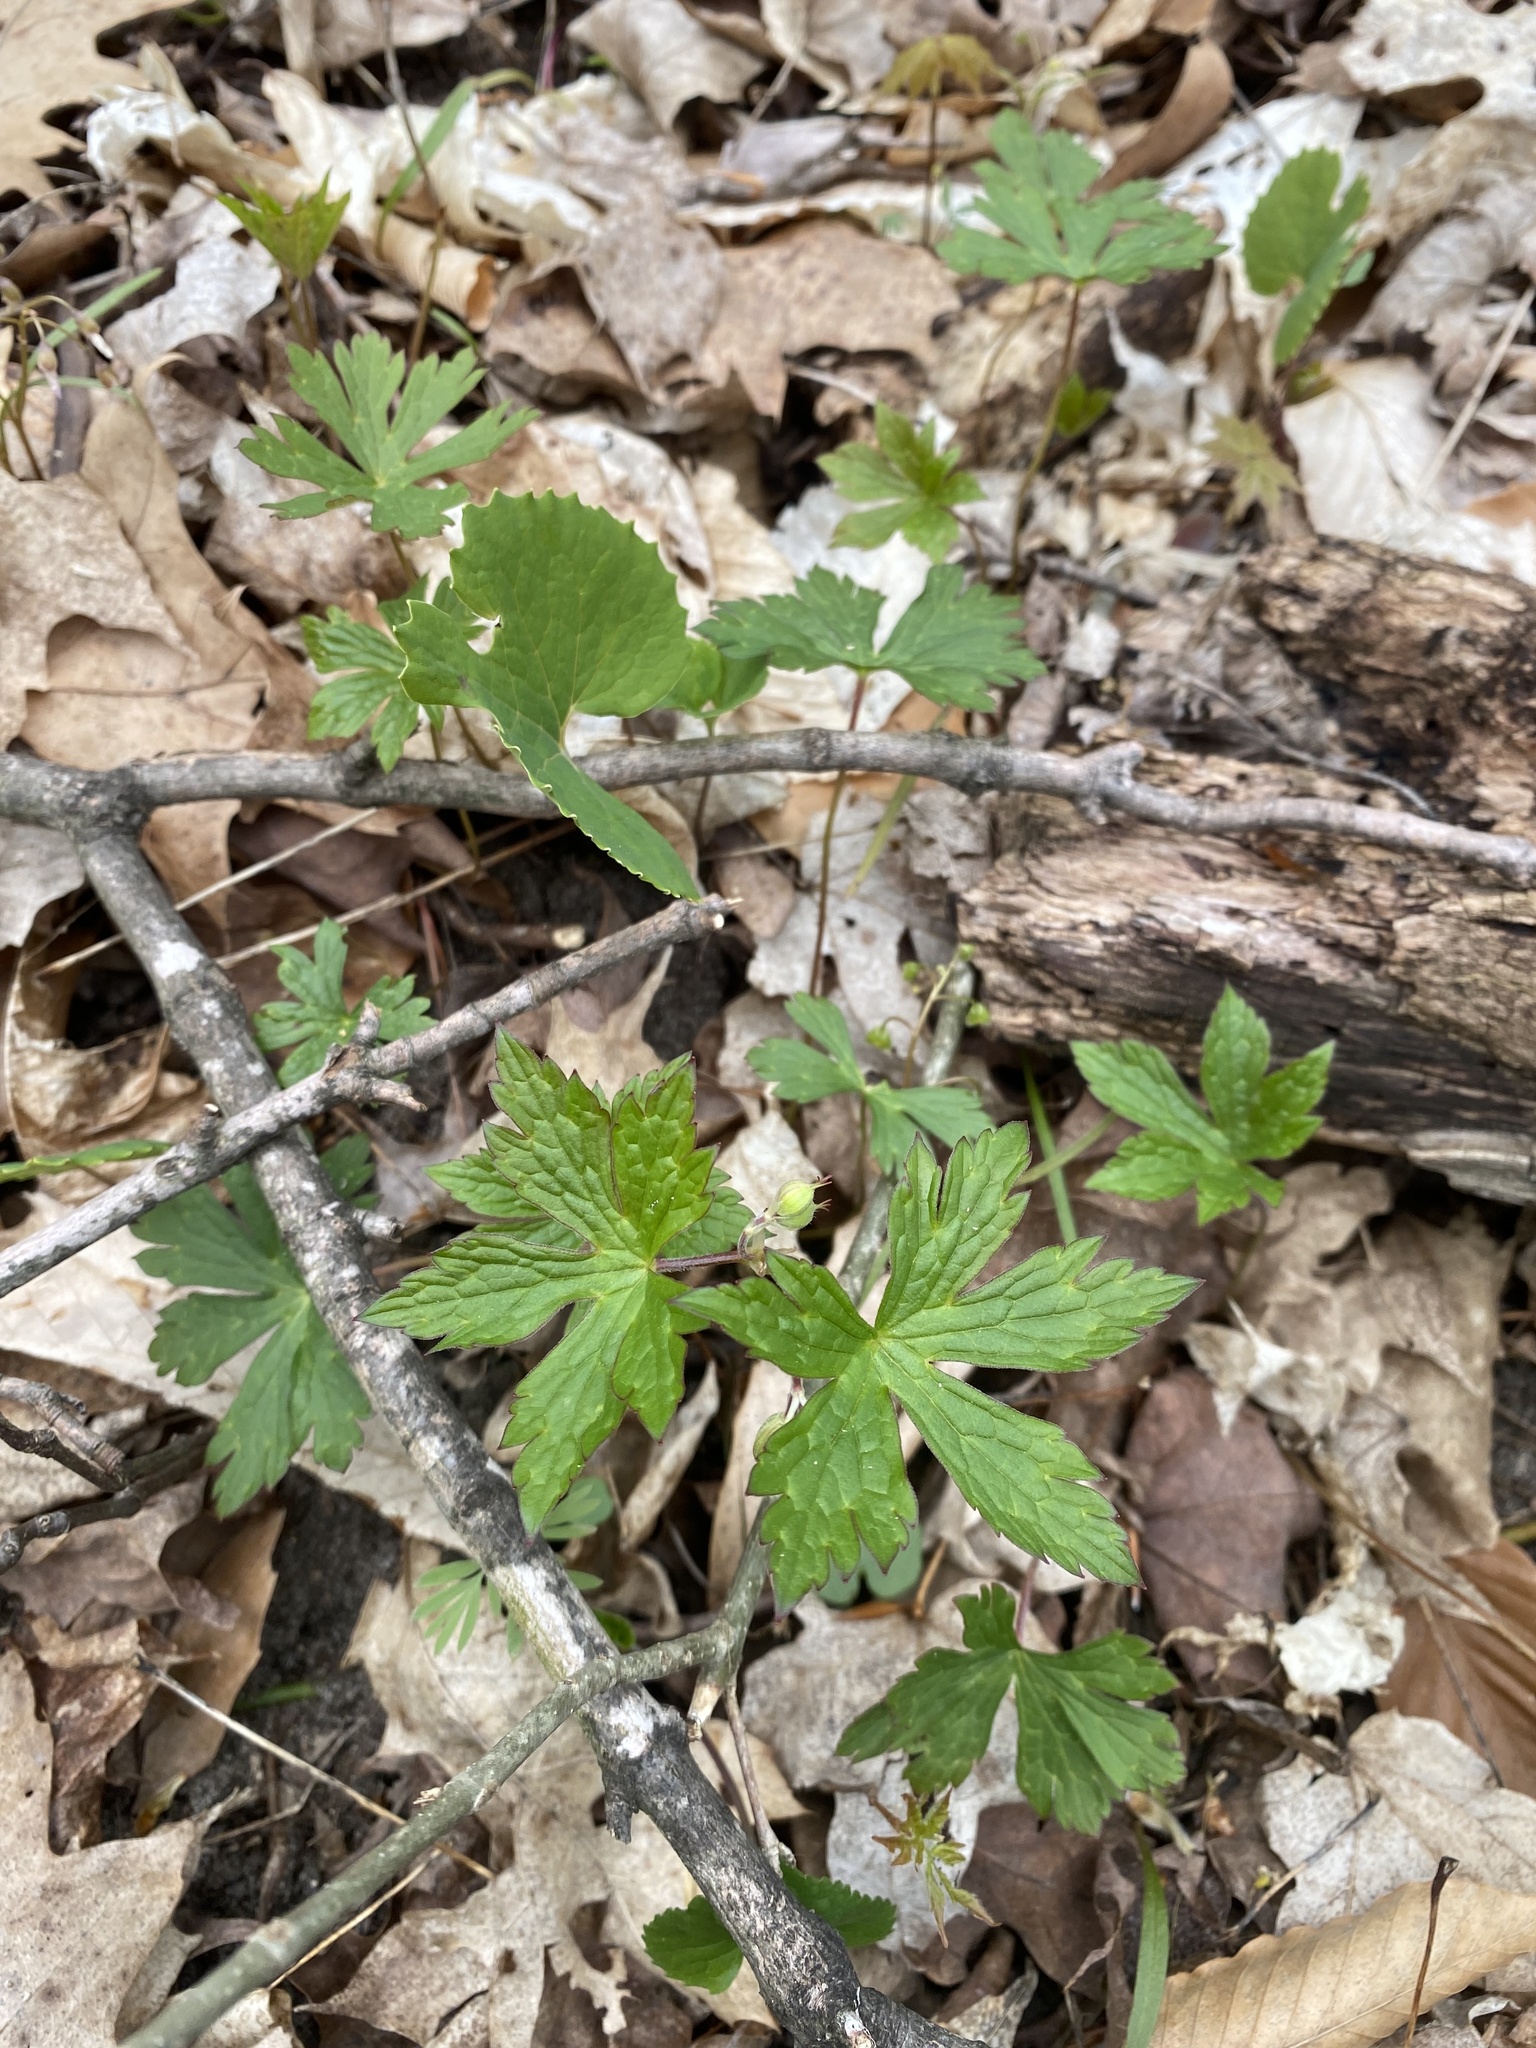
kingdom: Plantae
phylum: Tracheophyta
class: Magnoliopsida
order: Geraniales
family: Geraniaceae
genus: Geranium
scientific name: Geranium maculatum
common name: Spotted geranium
